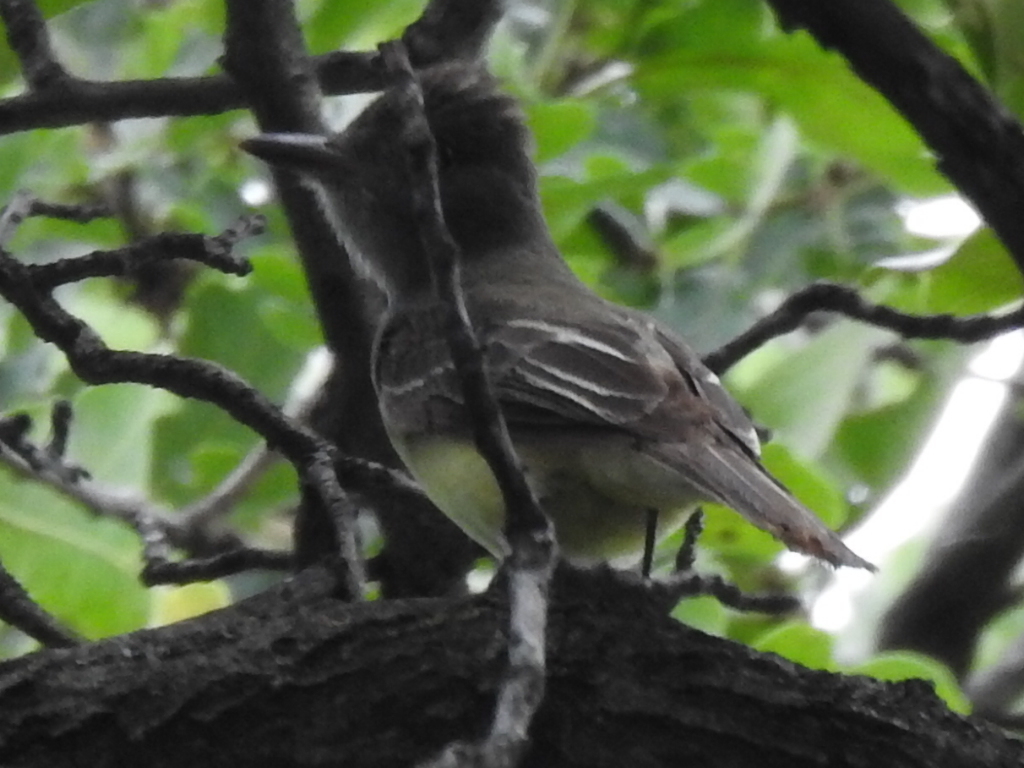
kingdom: Animalia
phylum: Chordata
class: Aves
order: Passeriformes
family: Tyrannidae
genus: Myiarchus
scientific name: Myiarchus crinitus
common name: Great crested flycatcher
